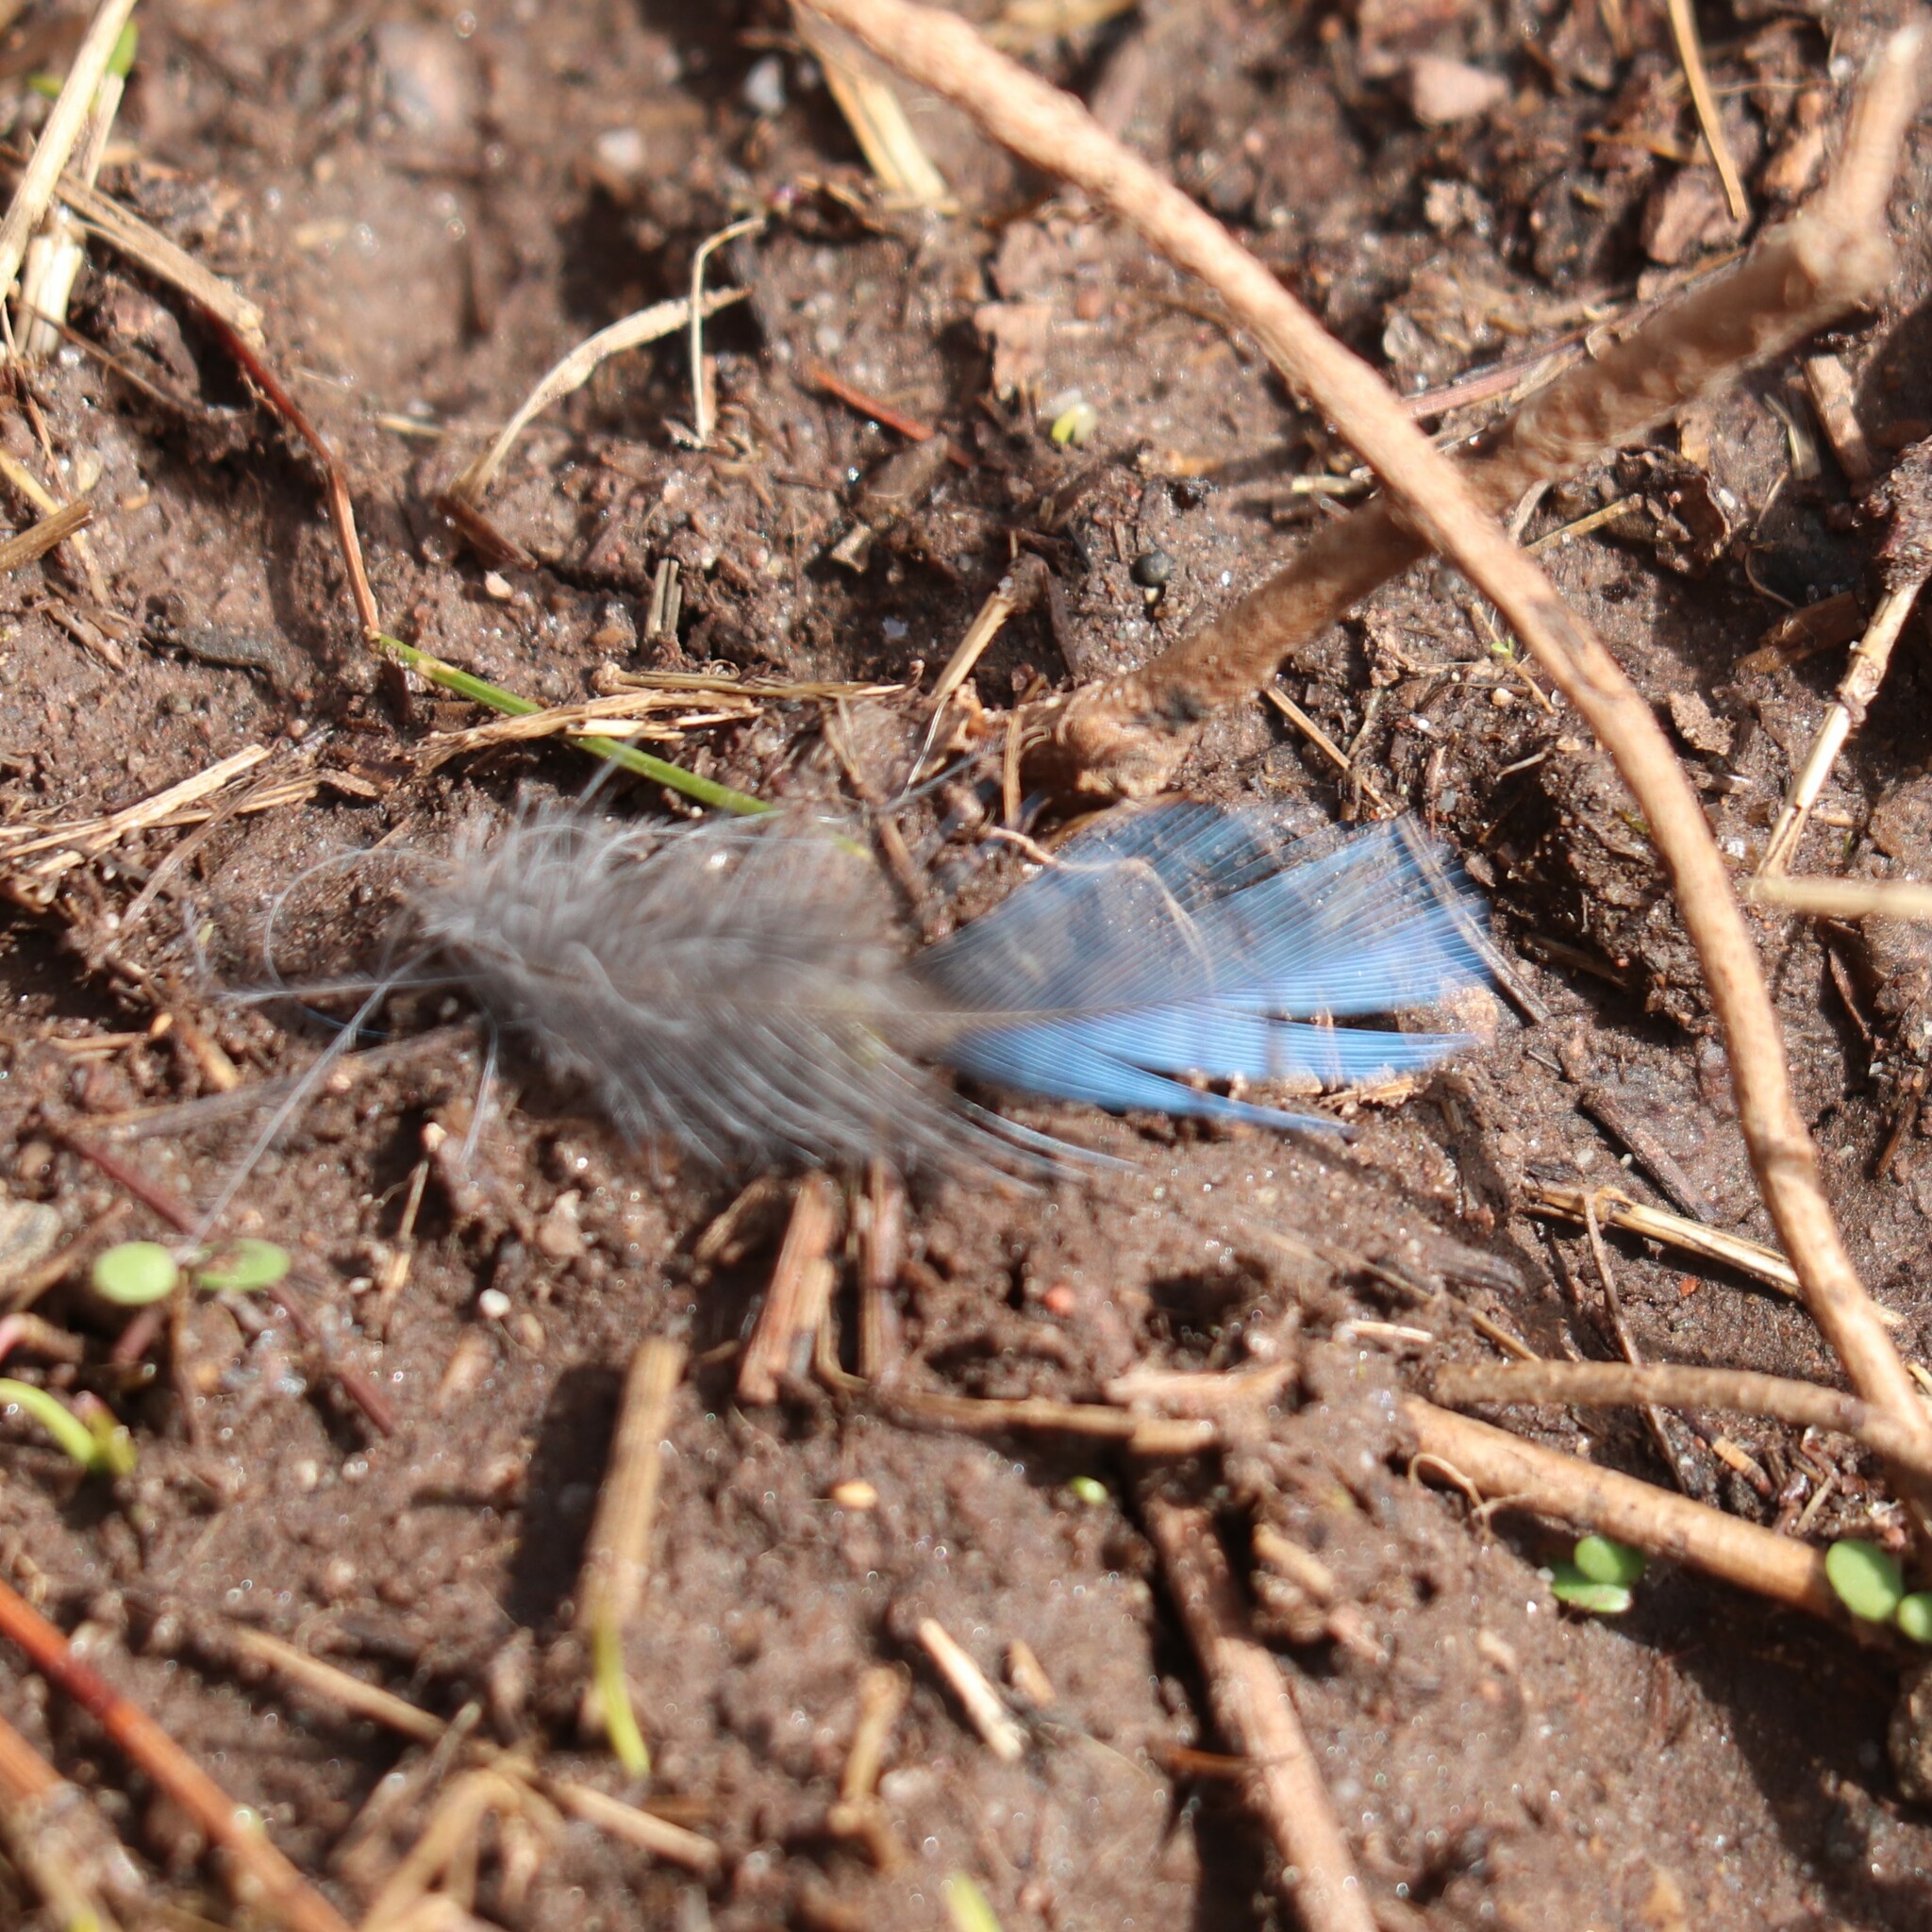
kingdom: Animalia
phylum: Chordata
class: Aves
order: Passeriformes
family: Corvidae
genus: Cyanocitta
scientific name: Cyanocitta cristata
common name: Blue jay
